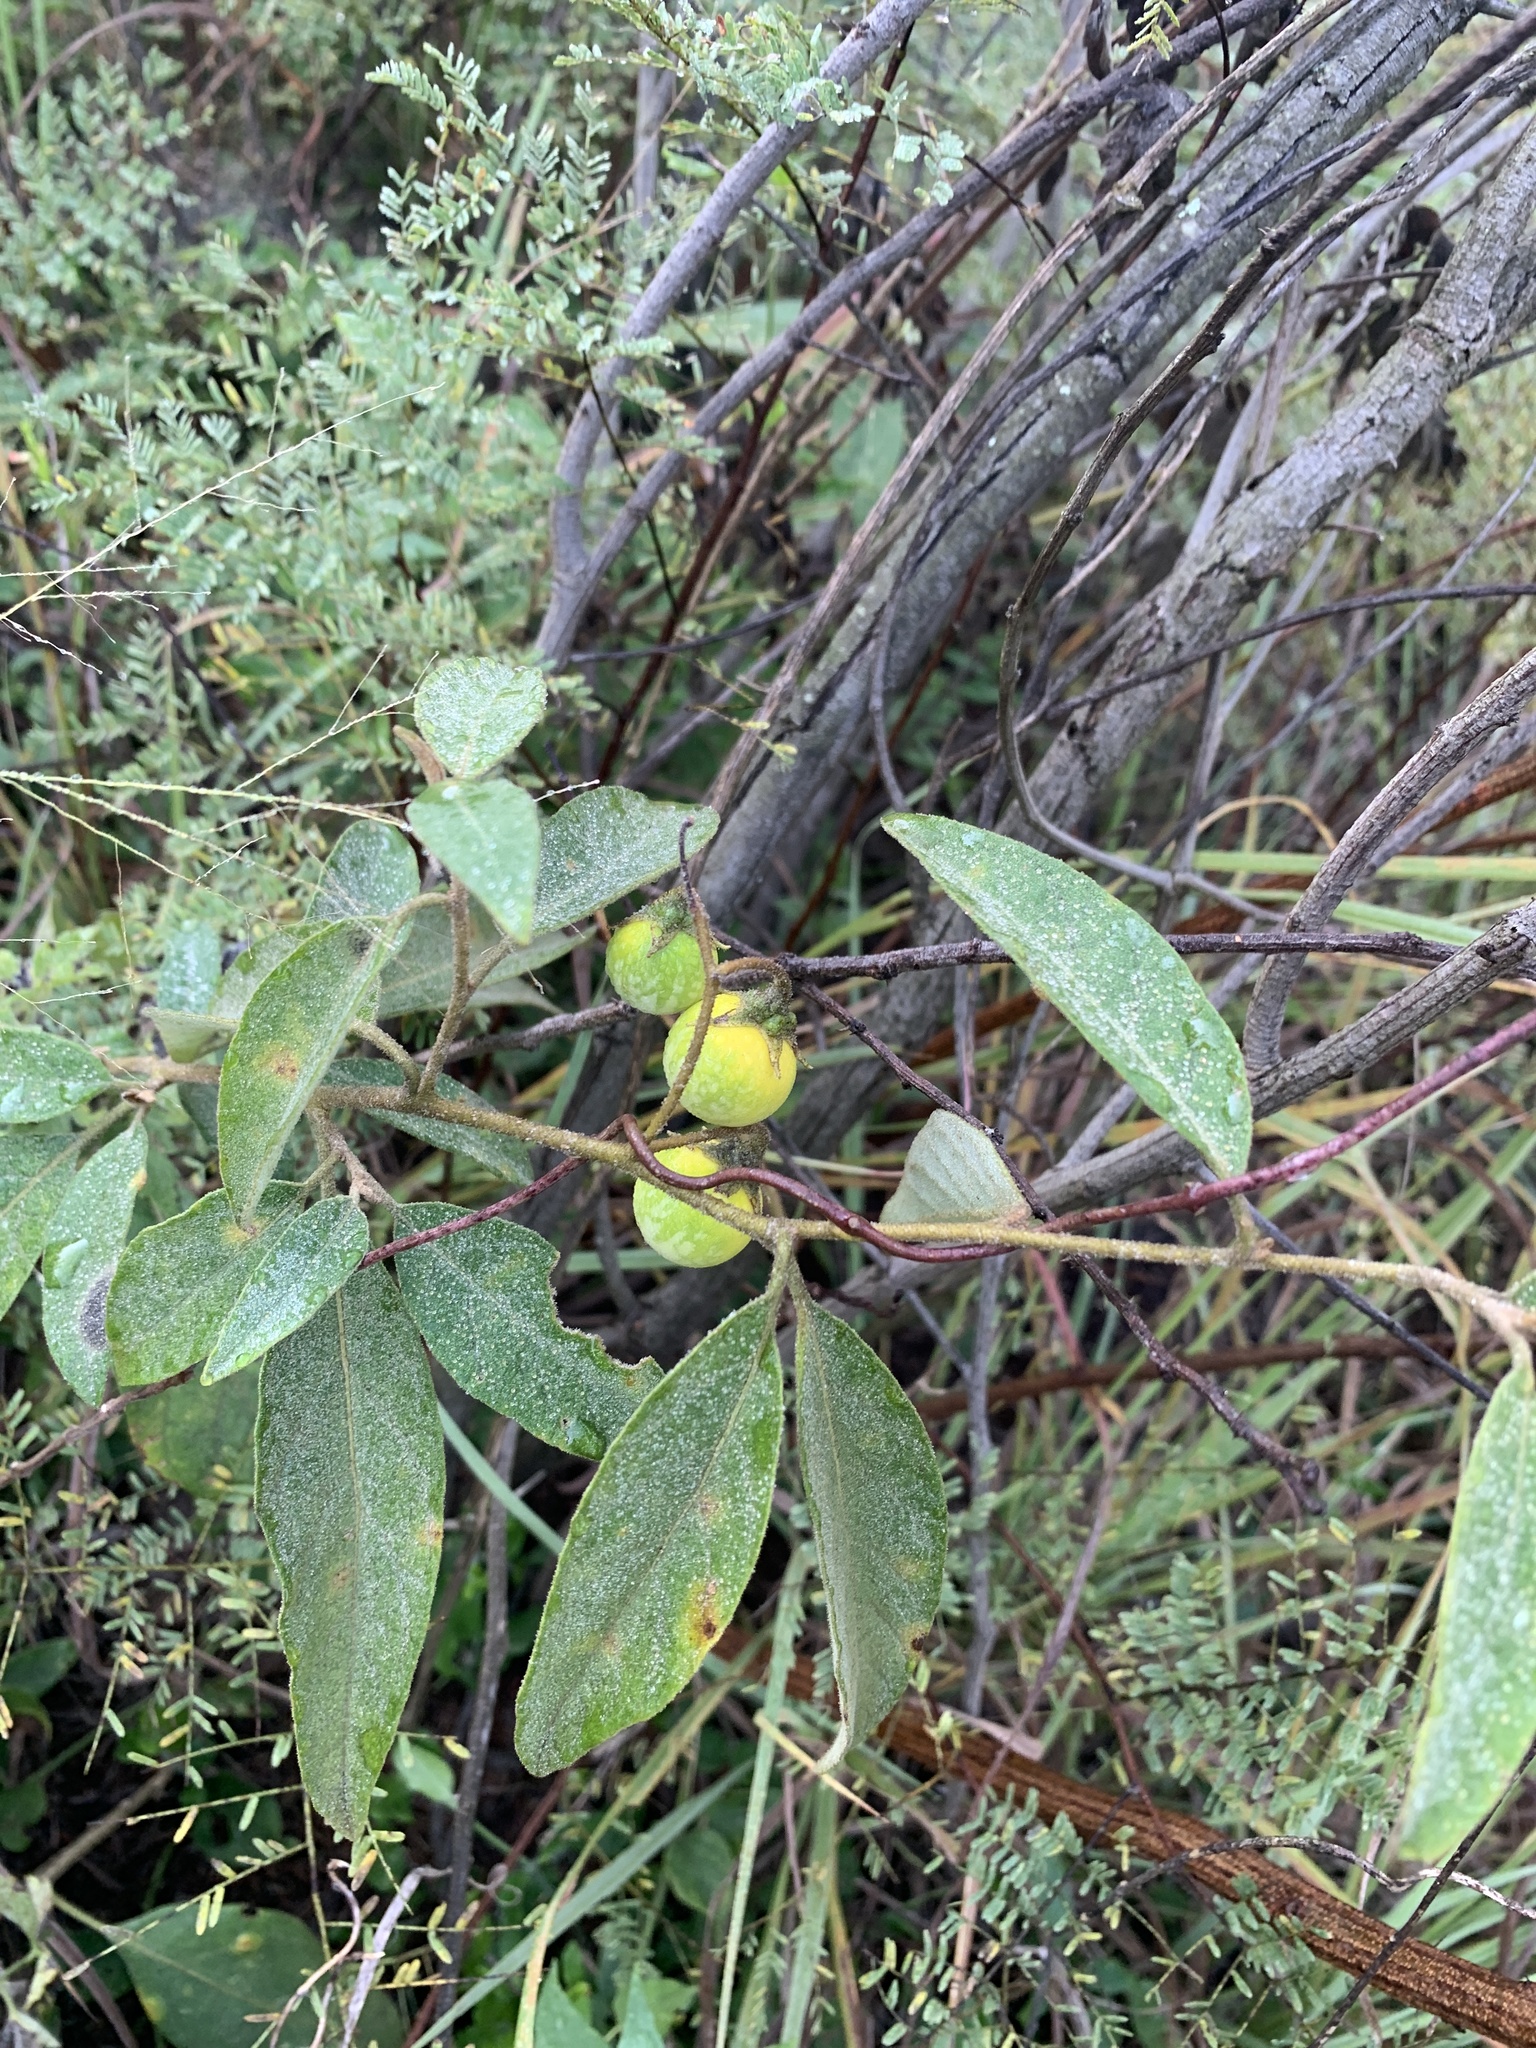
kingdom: Plantae
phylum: Tracheophyta
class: Magnoliopsida
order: Solanales
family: Solanaceae
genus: Solanum
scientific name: Solanum campylacanthum
